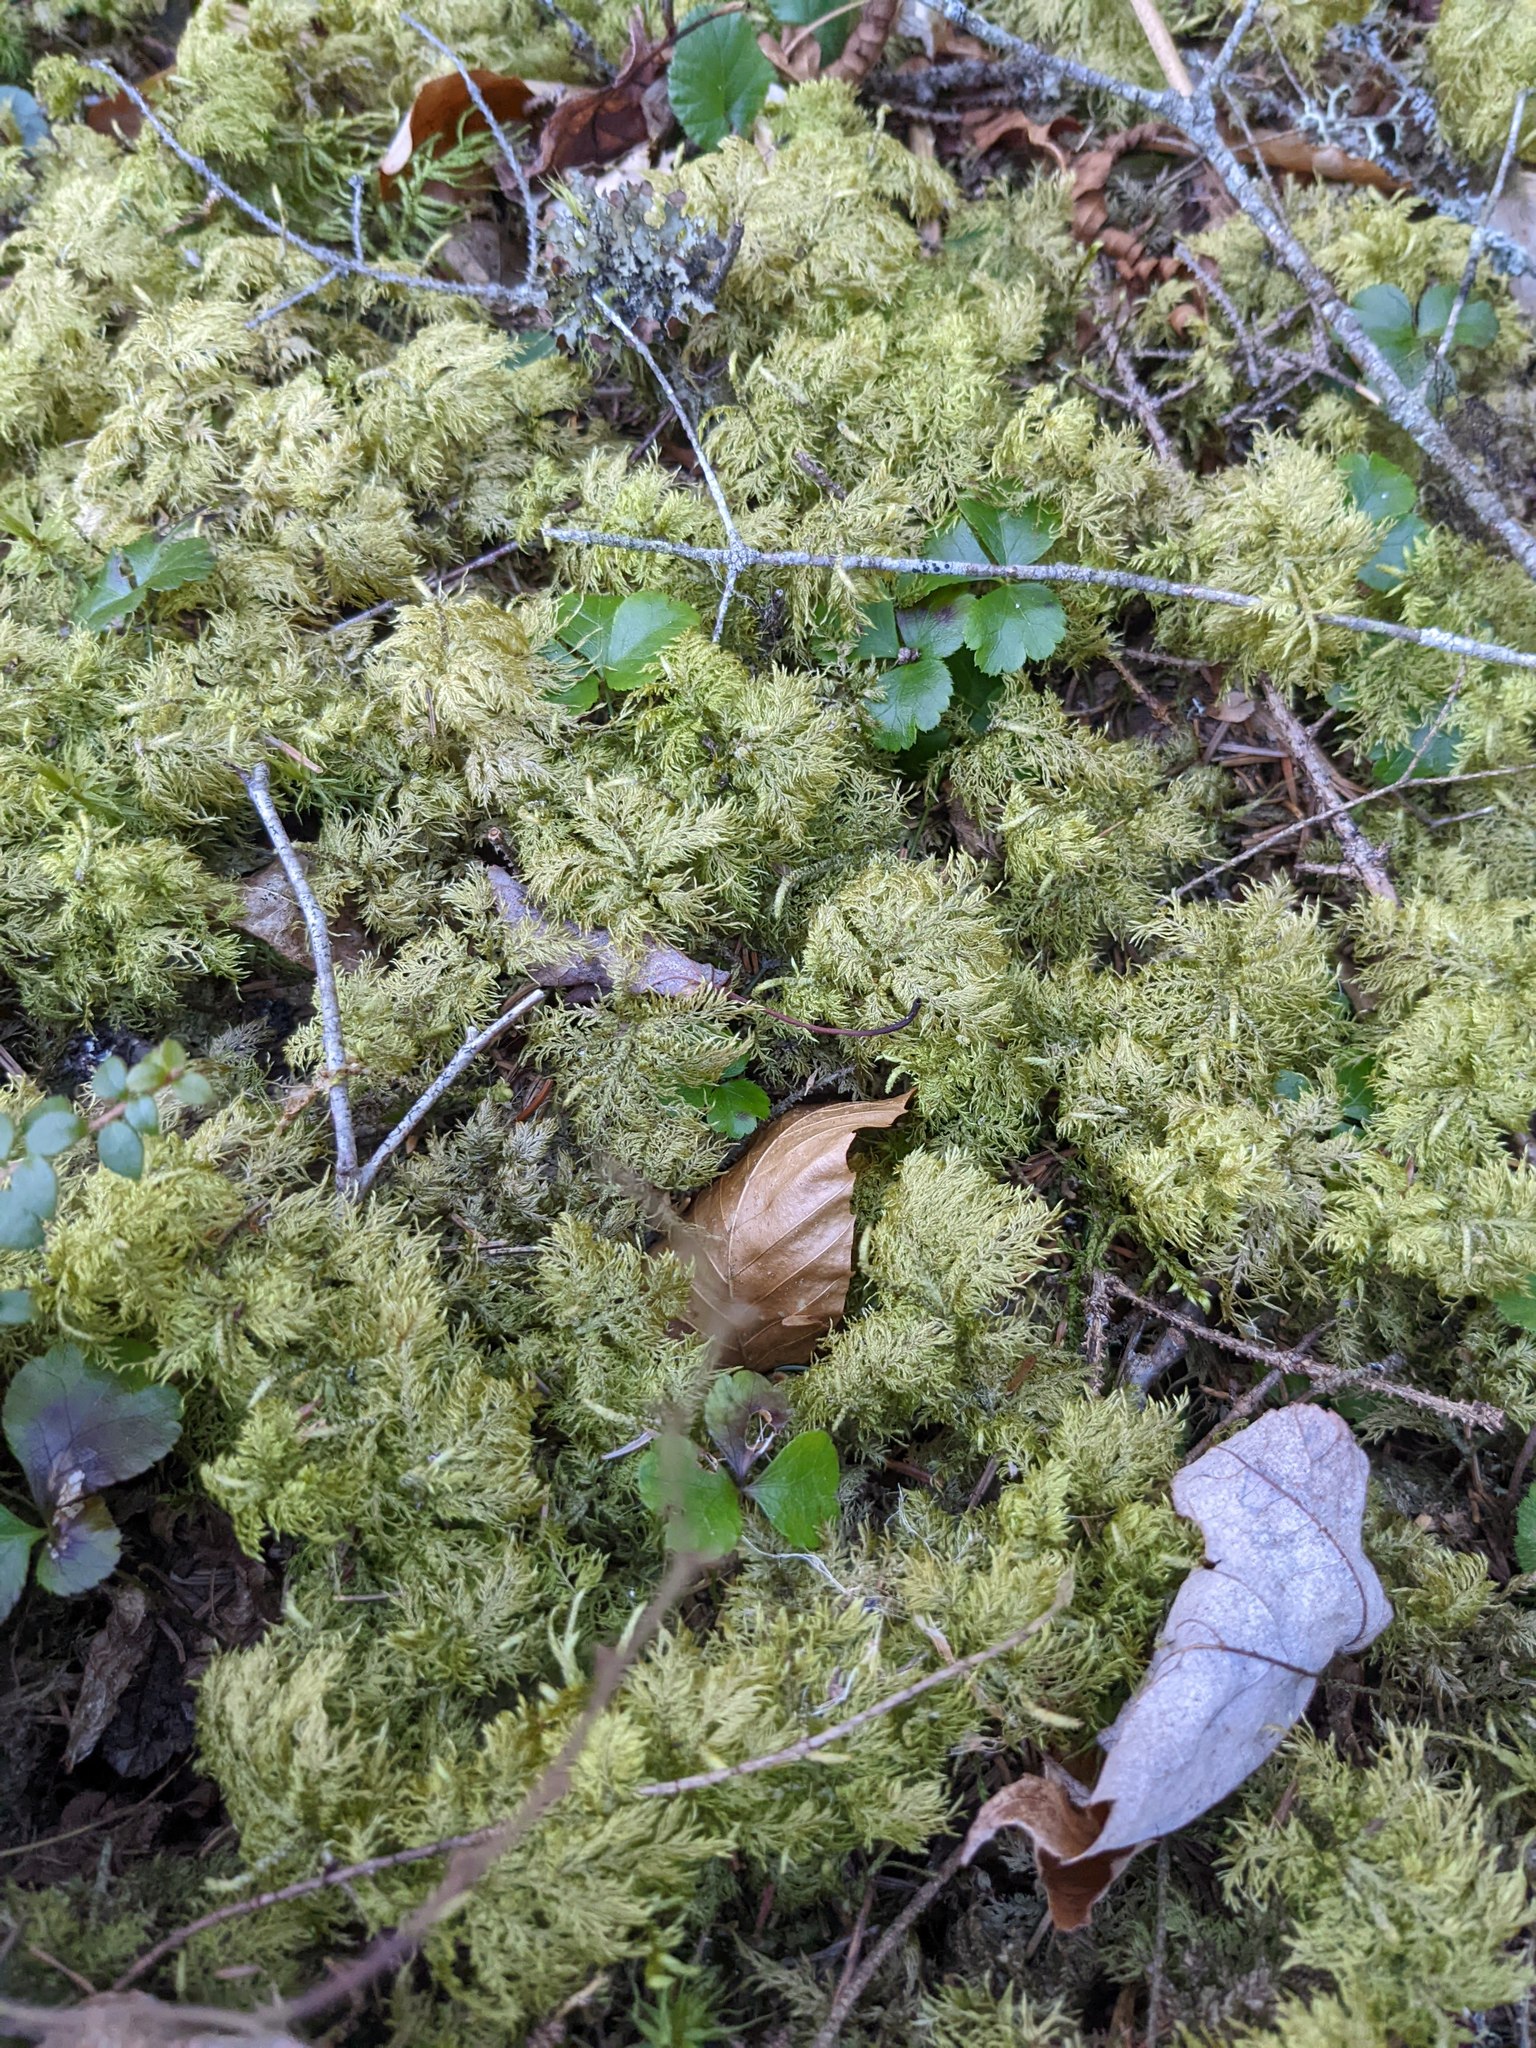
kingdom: Plantae
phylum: Tracheophyta
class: Magnoliopsida
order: Ranunculales
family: Ranunculaceae
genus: Coptis
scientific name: Coptis trifolia
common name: Canker-root
